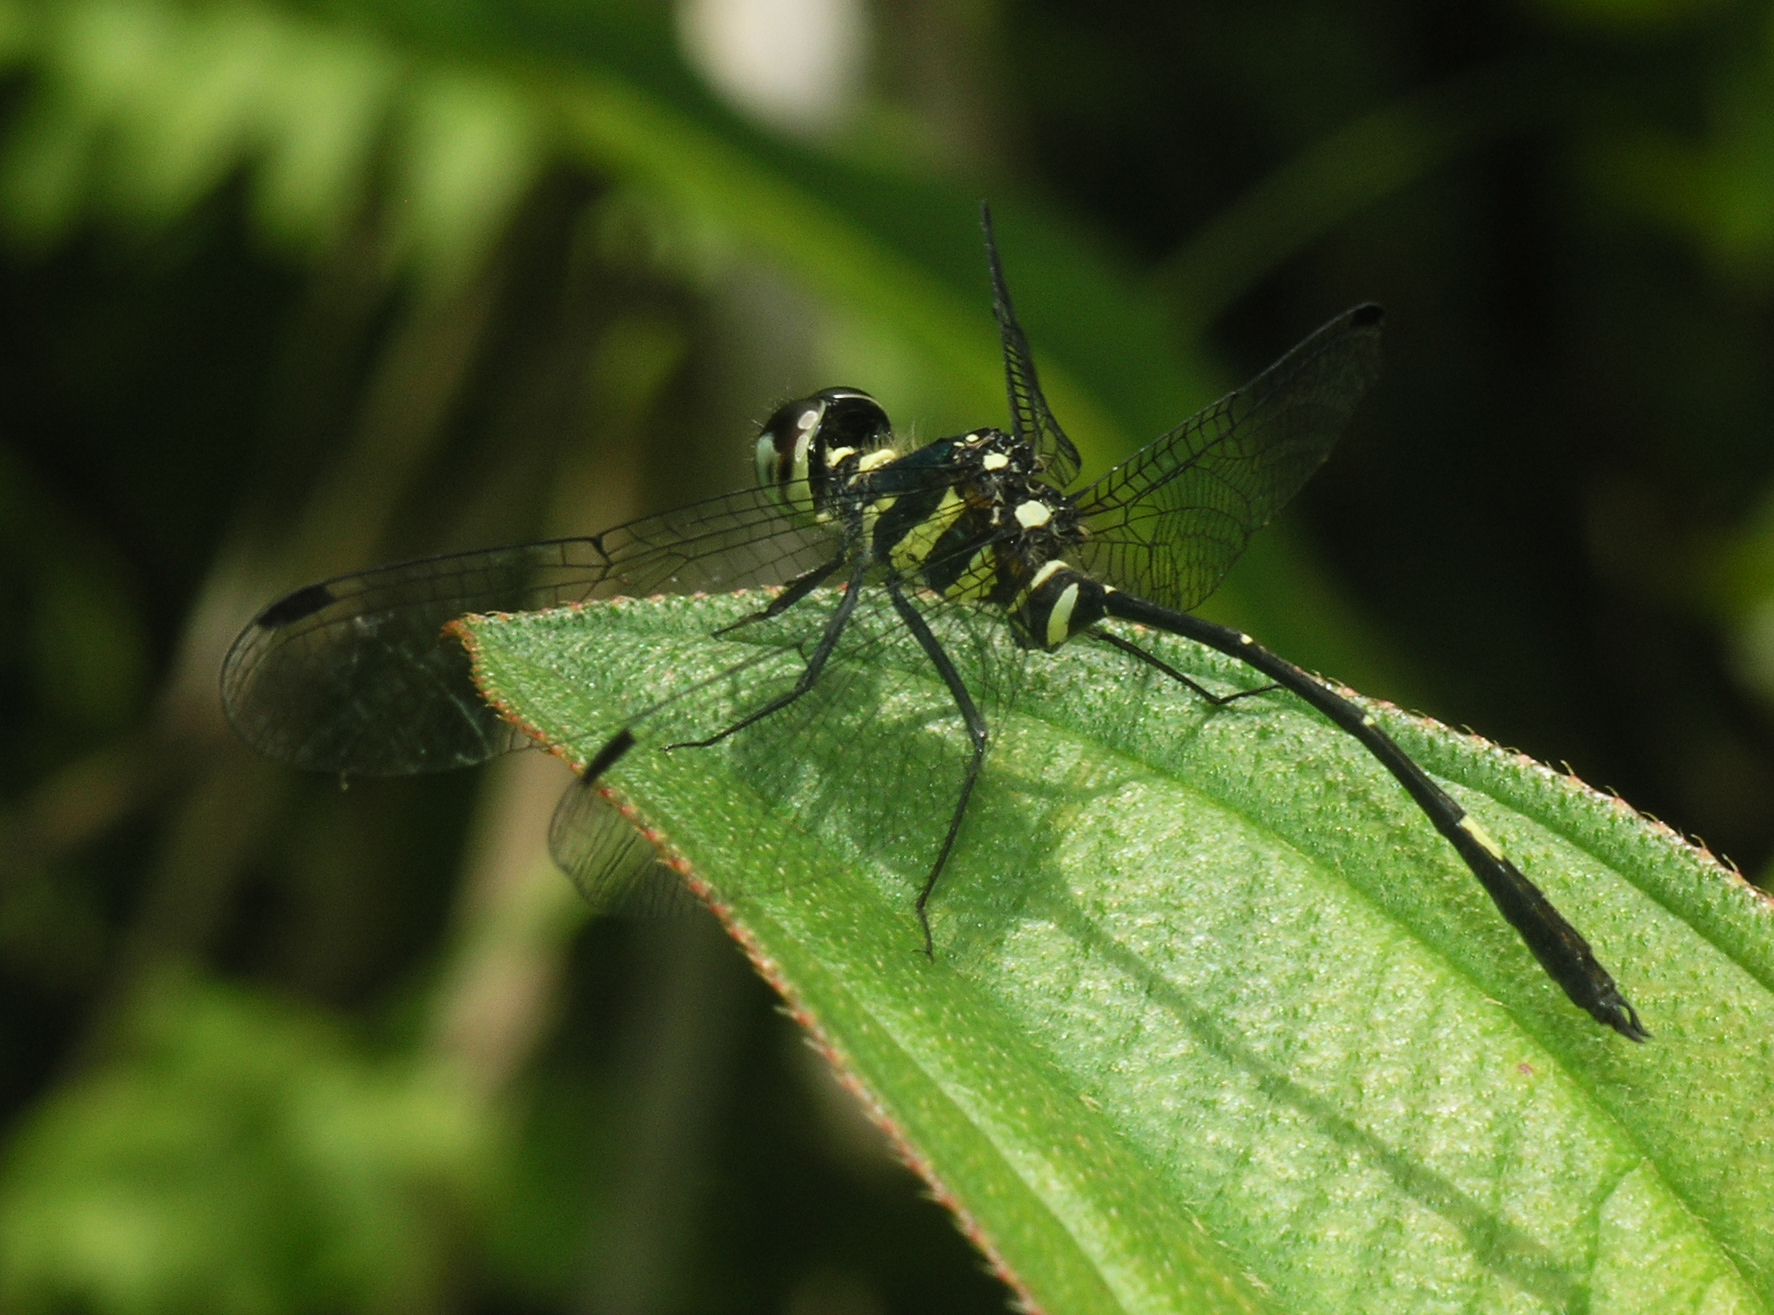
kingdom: Animalia
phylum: Arthropoda
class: Insecta
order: Odonata
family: Libellulidae
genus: Risiophlebia
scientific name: Risiophlebia guentheri
